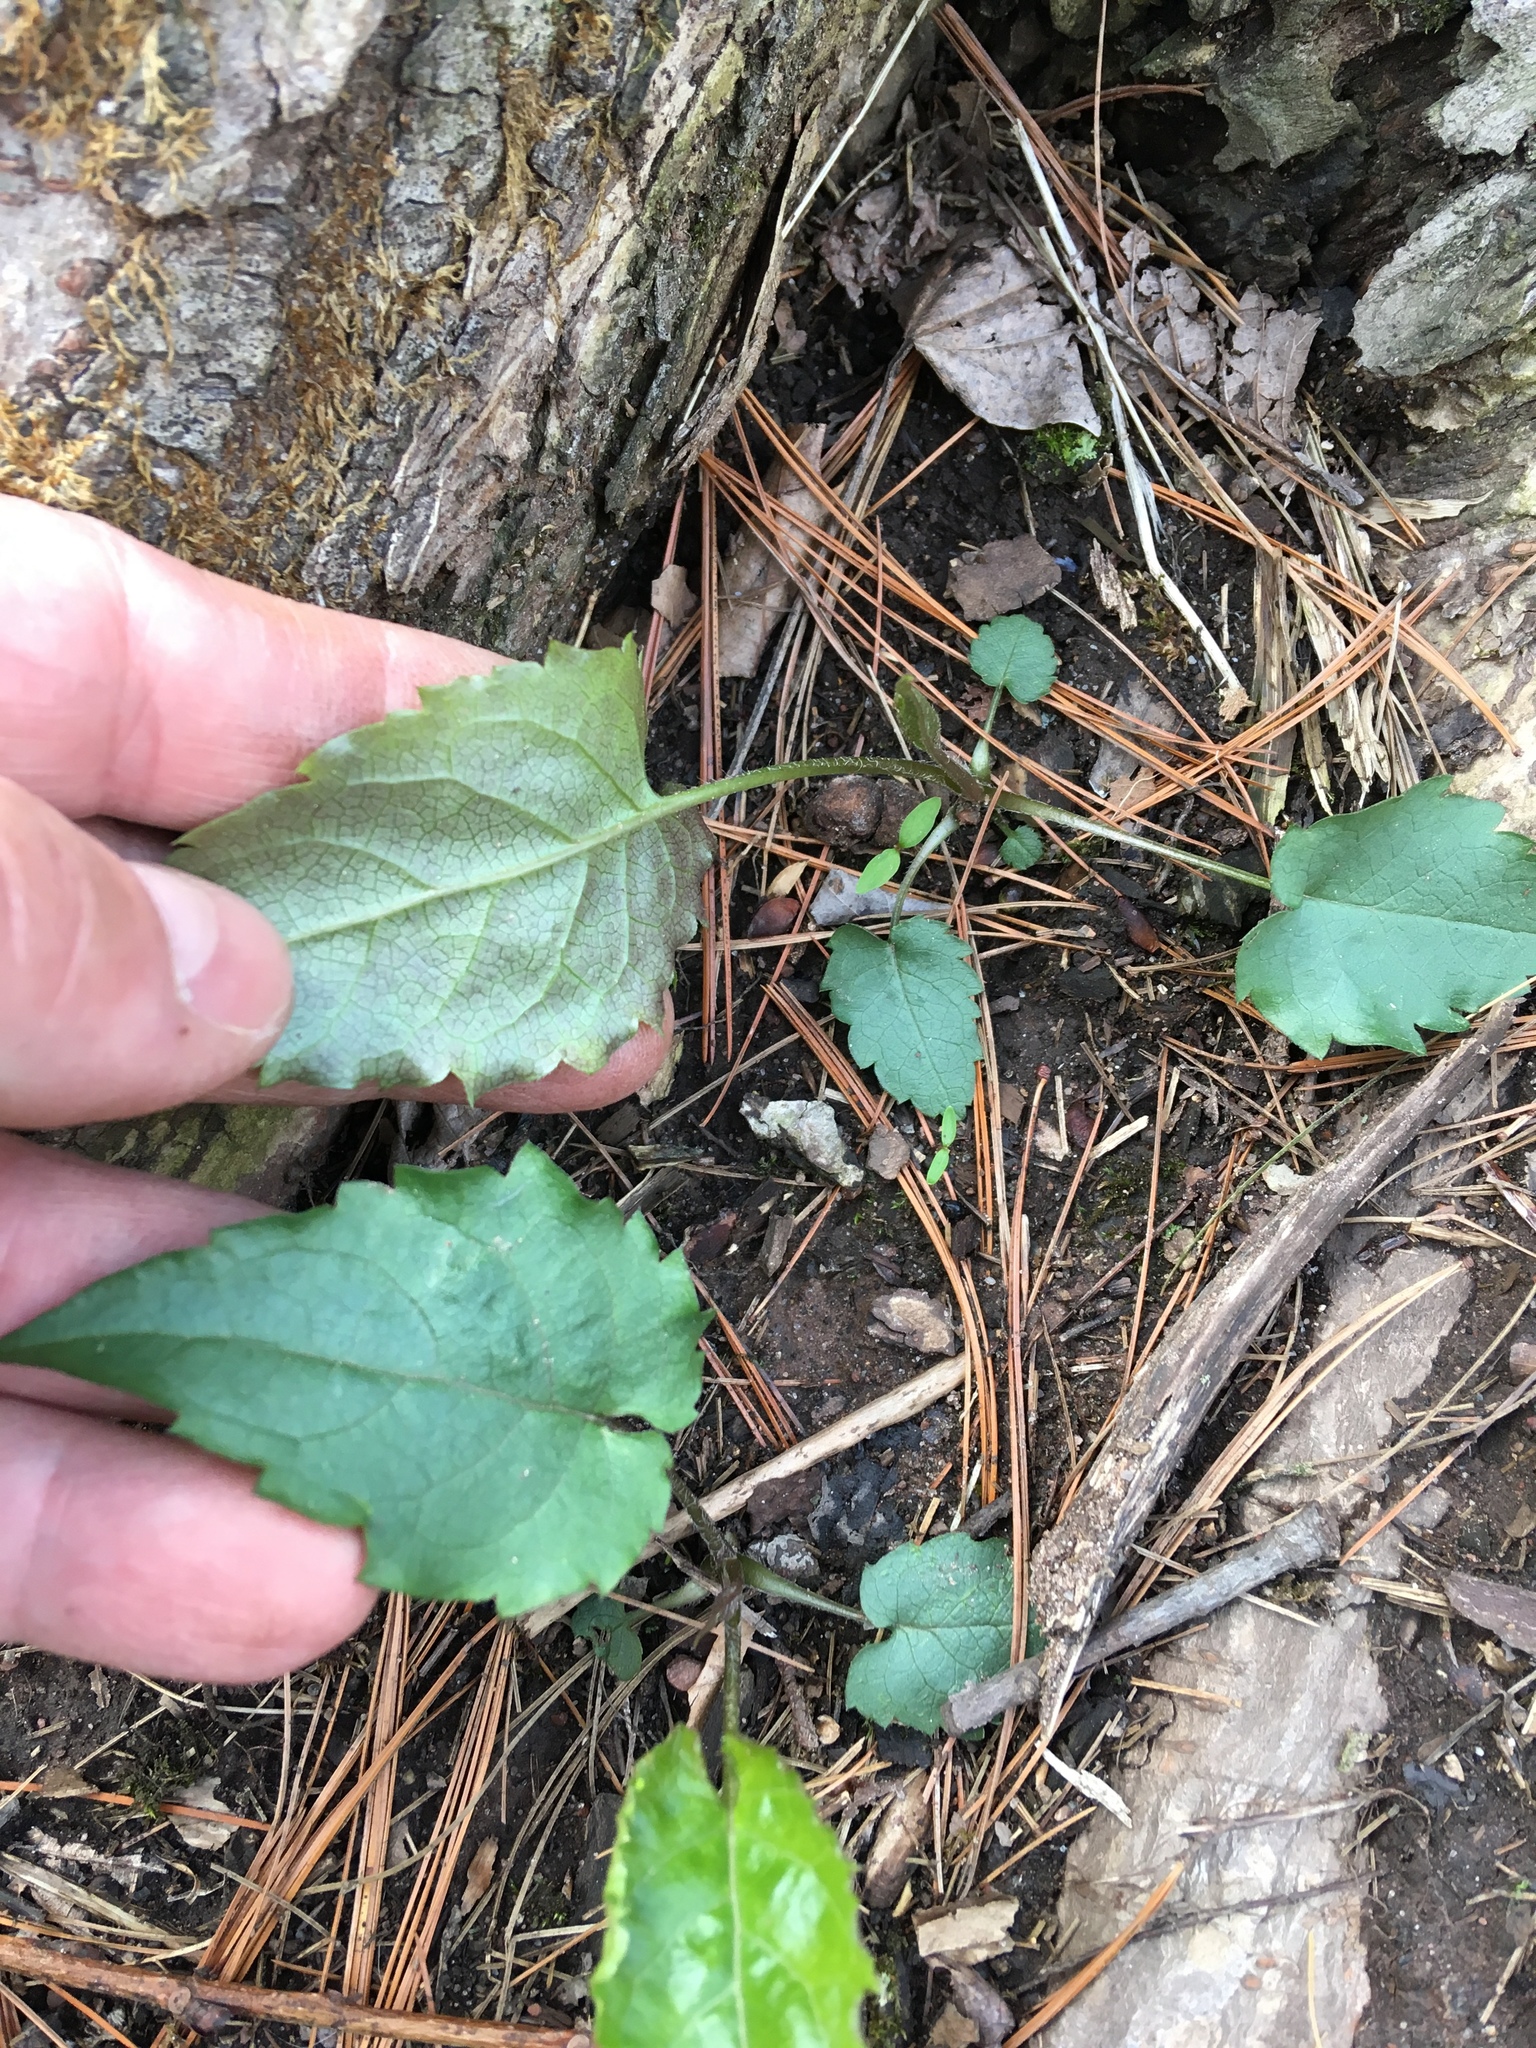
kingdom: Plantae
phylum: Tracheophyta
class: Magnoliopsida
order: Asterales
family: Asteraceae
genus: Eurybia
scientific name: Eurybia divaricata
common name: White wood aster
